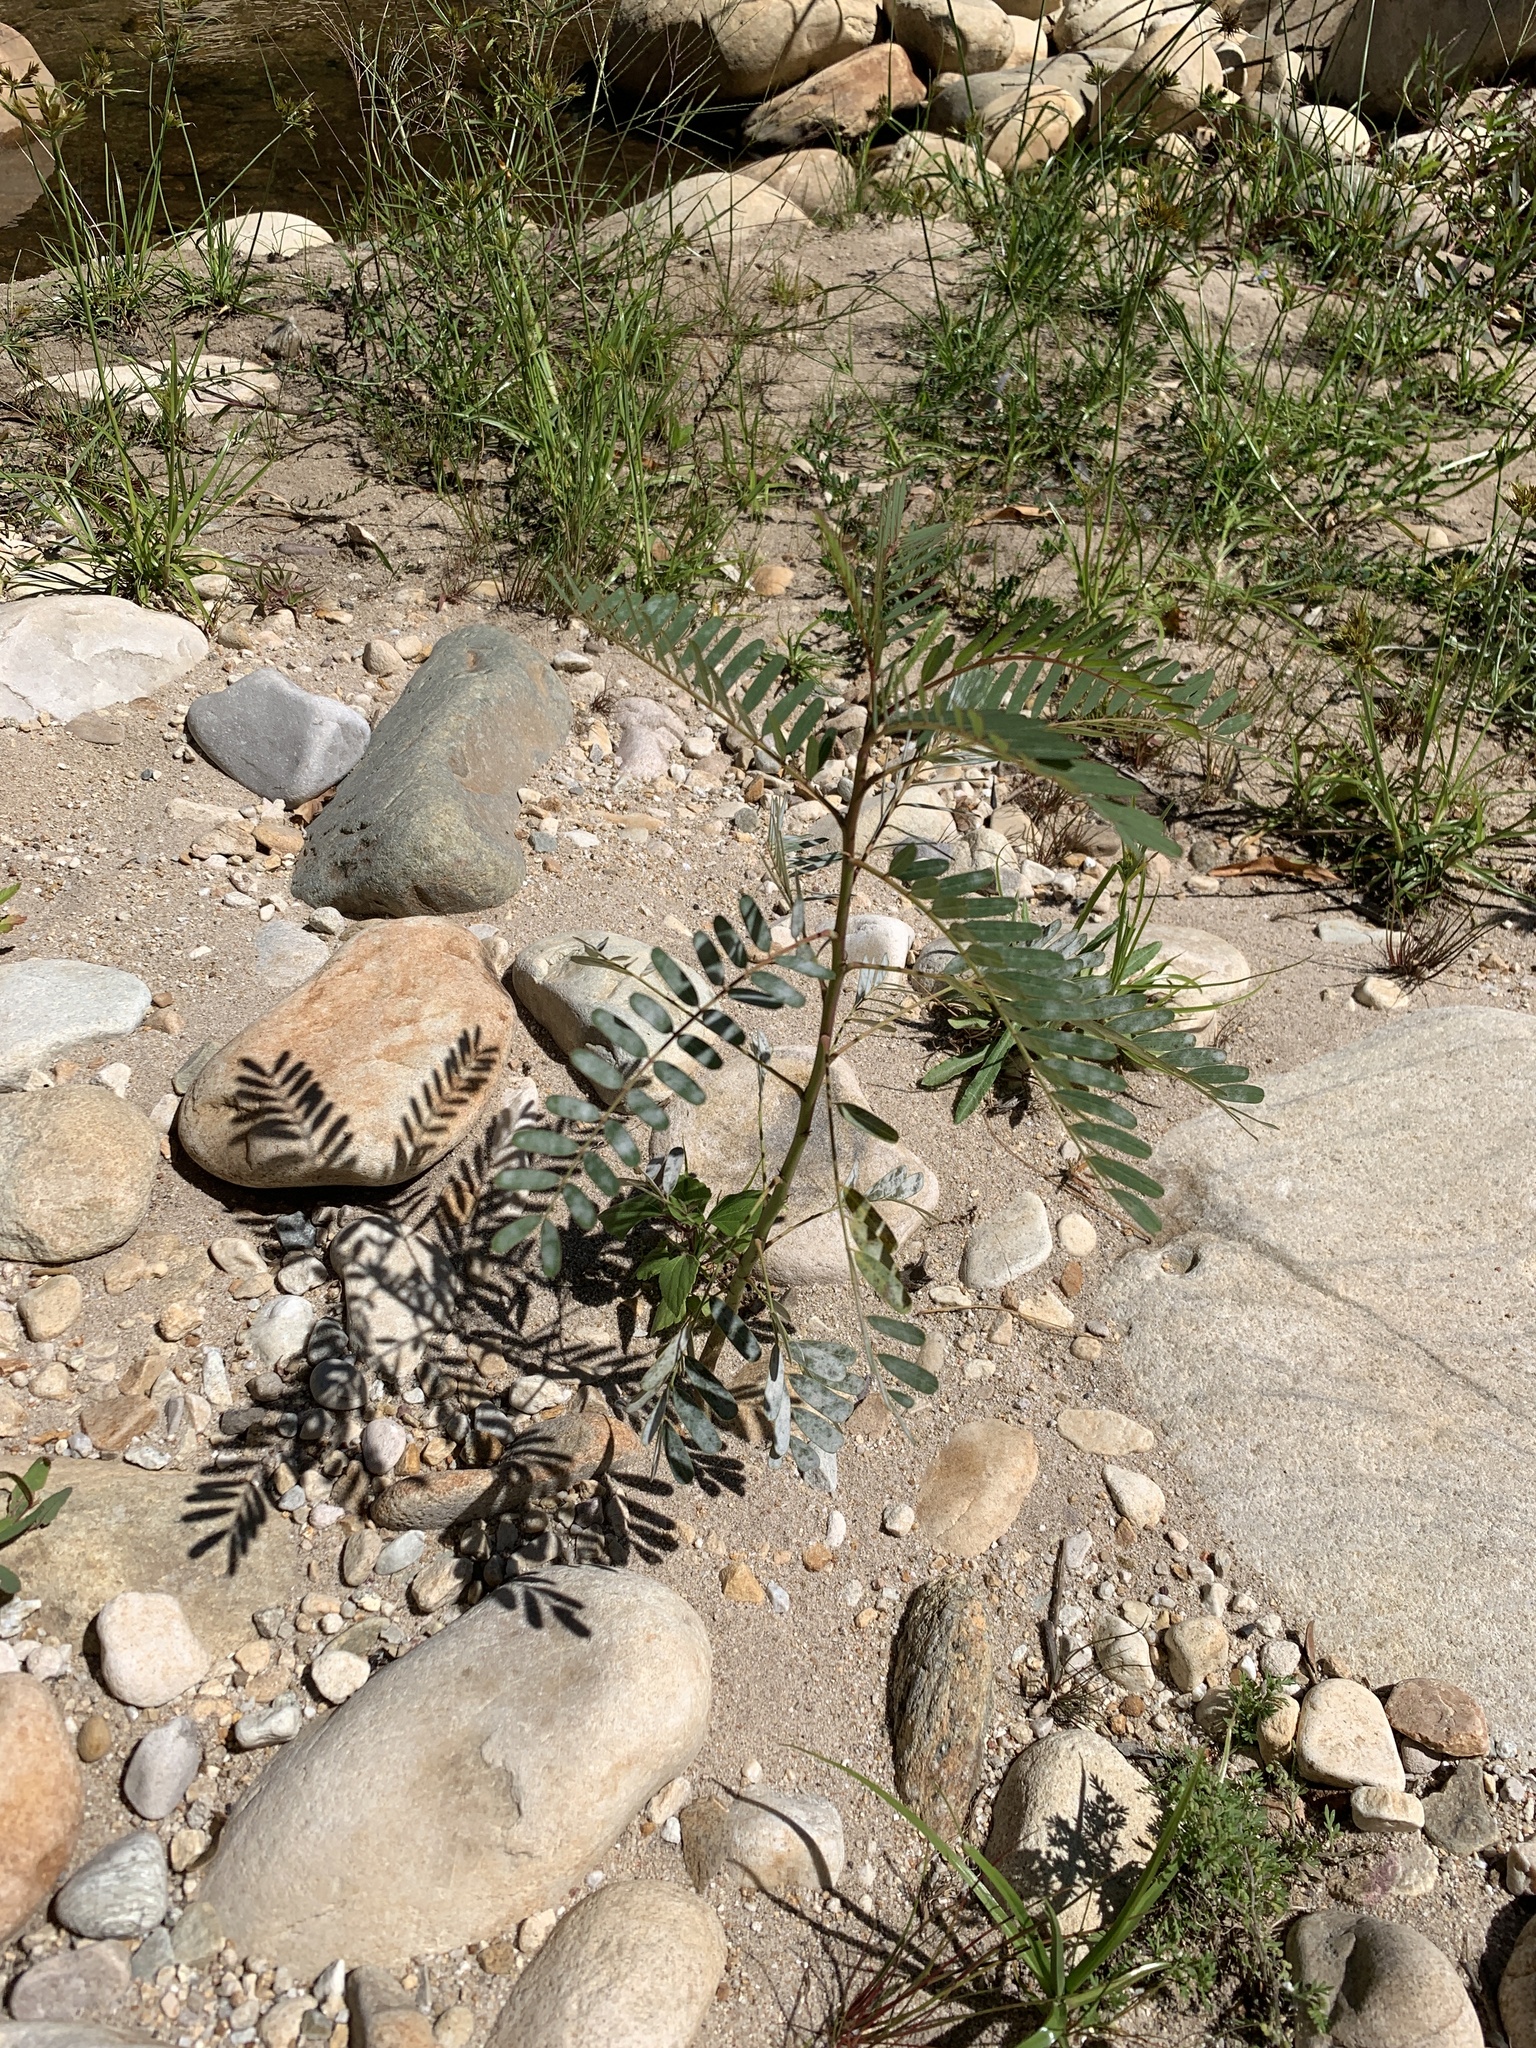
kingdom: Plantae
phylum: Tracheophyta
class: Magnoliopsida
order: Fabales
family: Fabaceae
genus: Sesbania
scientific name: Sesbania punicea
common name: Rattlebox
